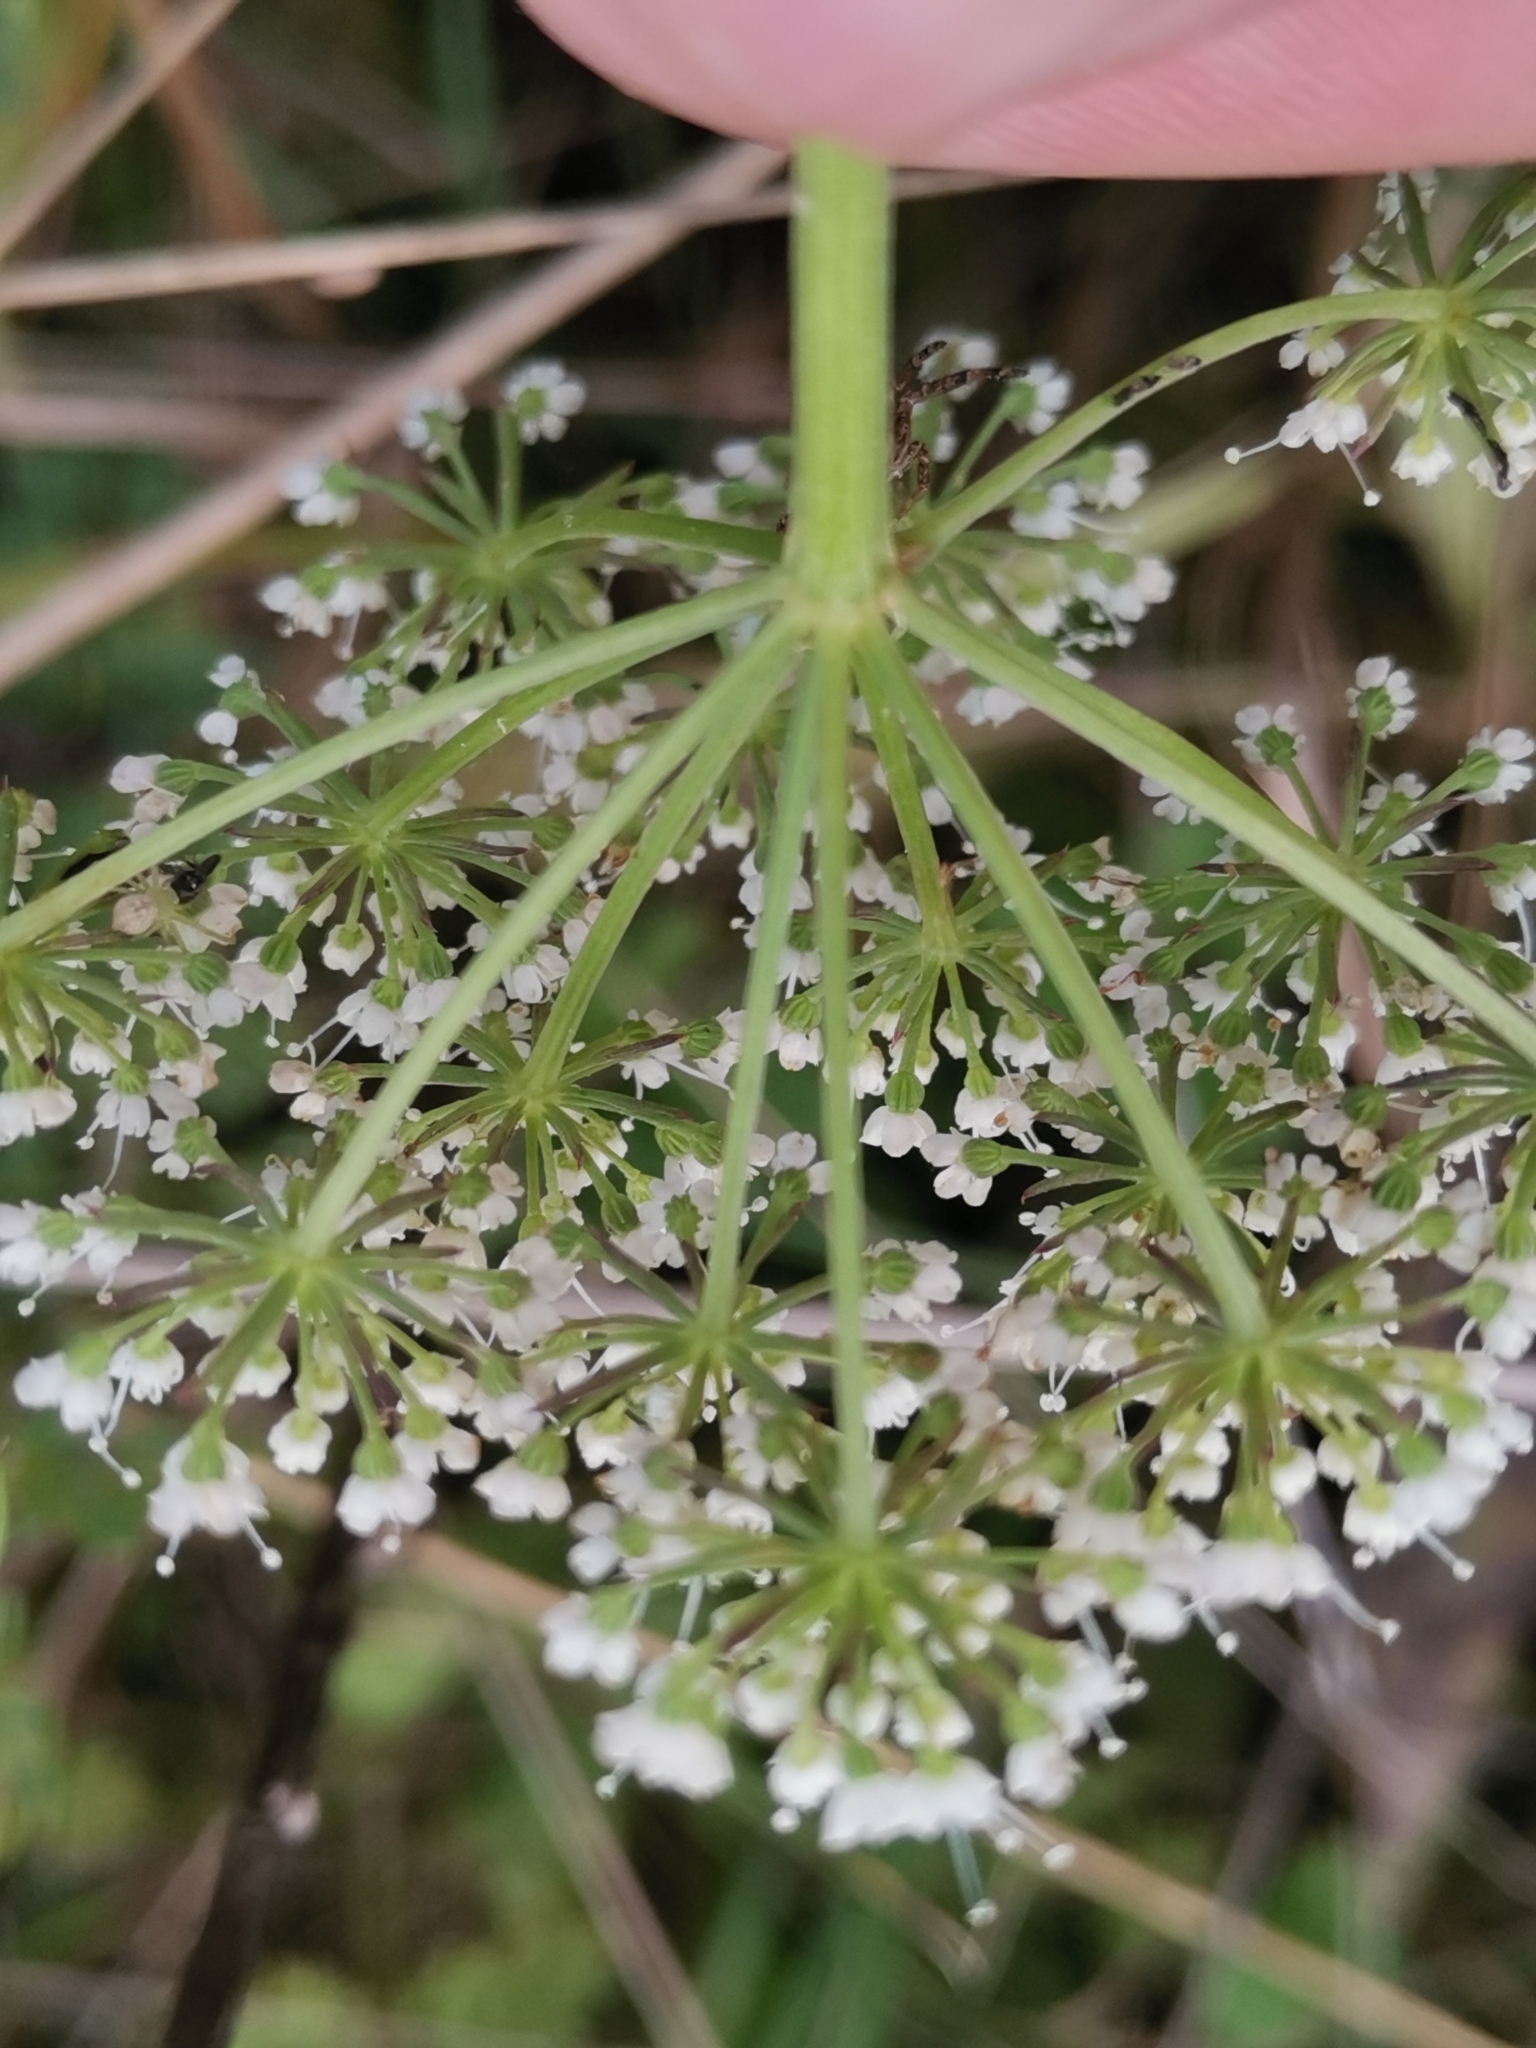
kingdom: Plantae
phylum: Tracheophyta
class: Magnoliopsida
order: Apiales
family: Apiaceae
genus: Selinum
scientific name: Selinum carvifolia
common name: Cambridge milk-parsley
